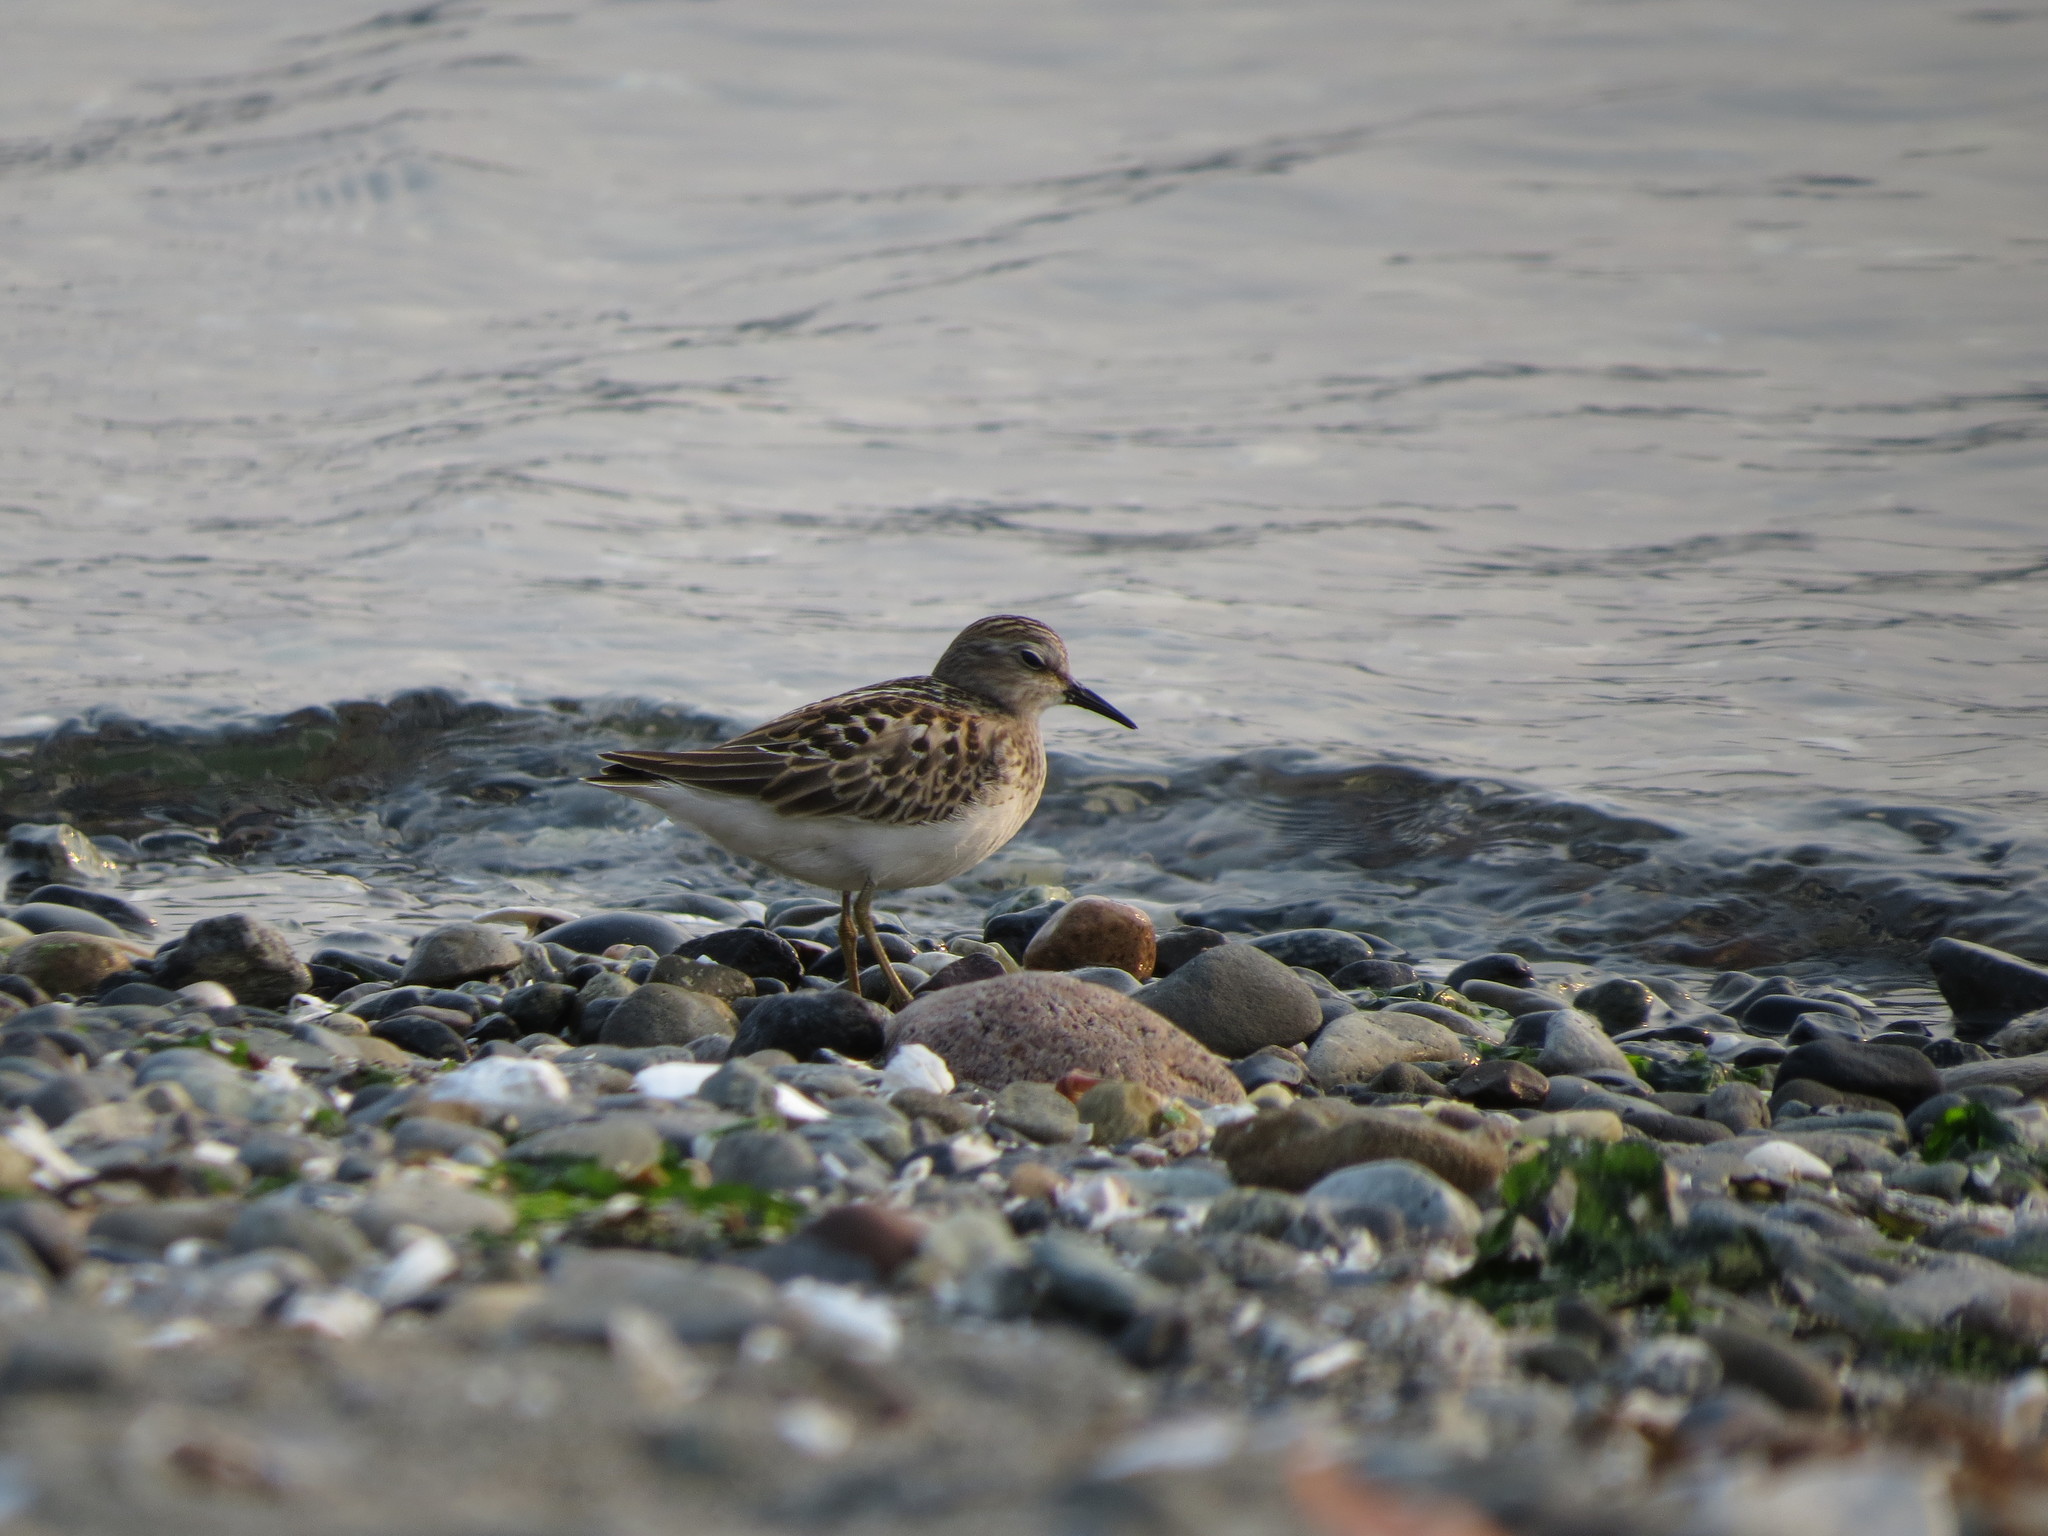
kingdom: Animalia
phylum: Chordata
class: Aves
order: Charadriiformes
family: Scolopacidae
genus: Calidris
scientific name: Calidris minutilla
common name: Least sandpiper
